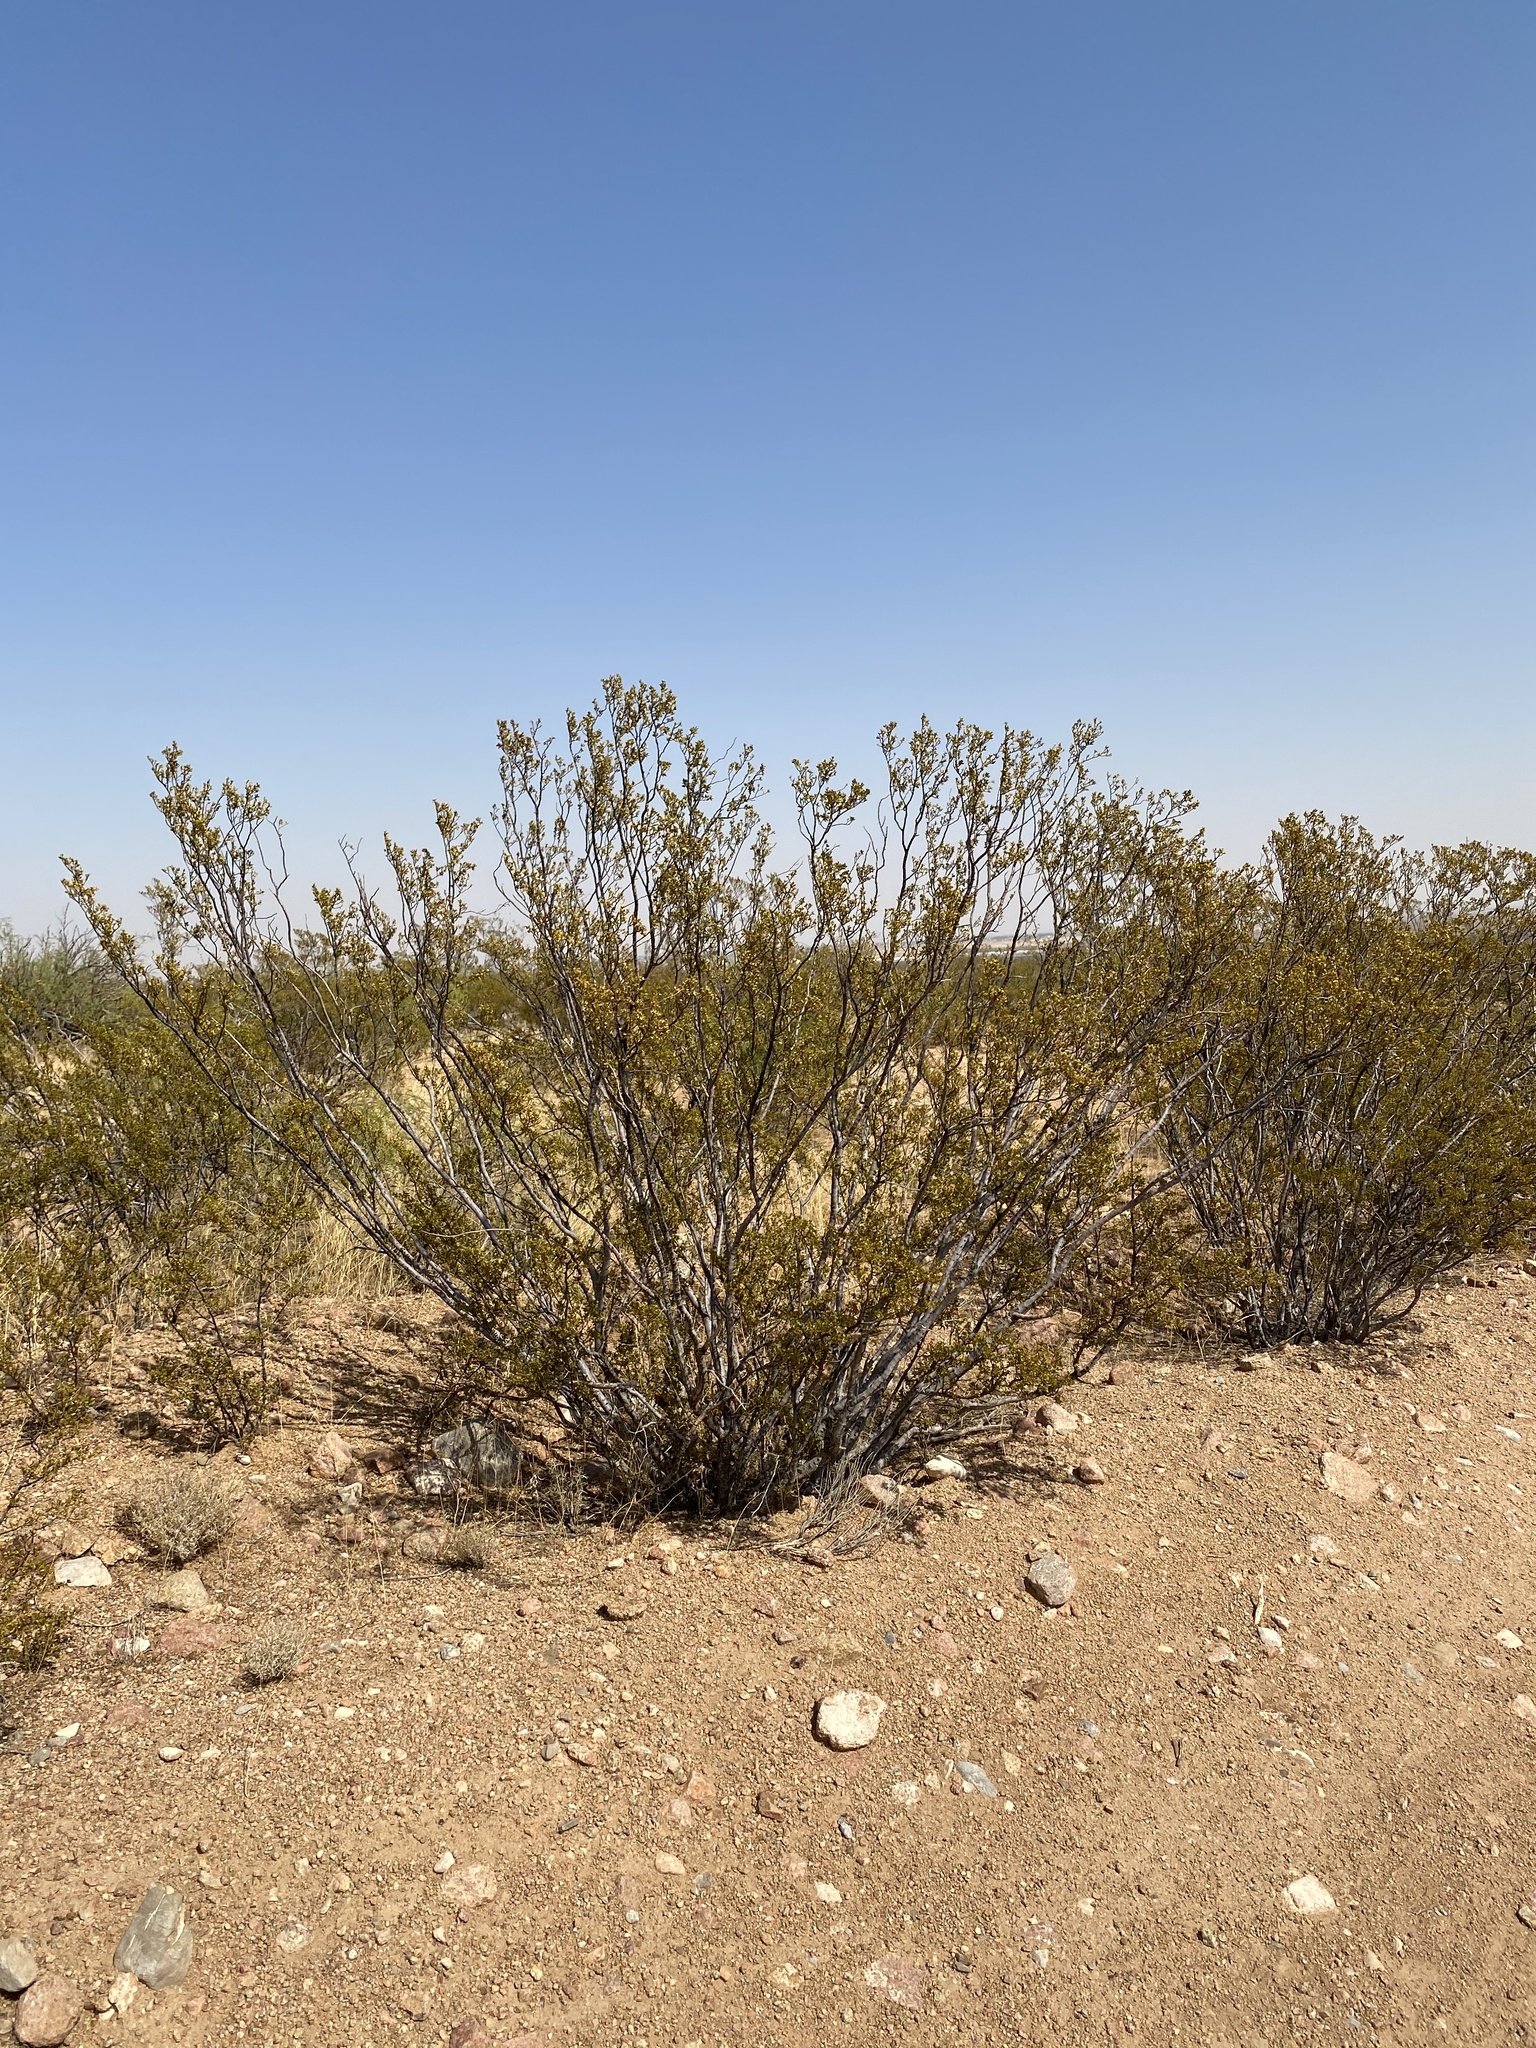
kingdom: Plantae
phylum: Tracheophyta
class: Magnoliopsida
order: Zygophyllales
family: Zygophyllaceae
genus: Larrea
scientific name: Larrea tridentata
